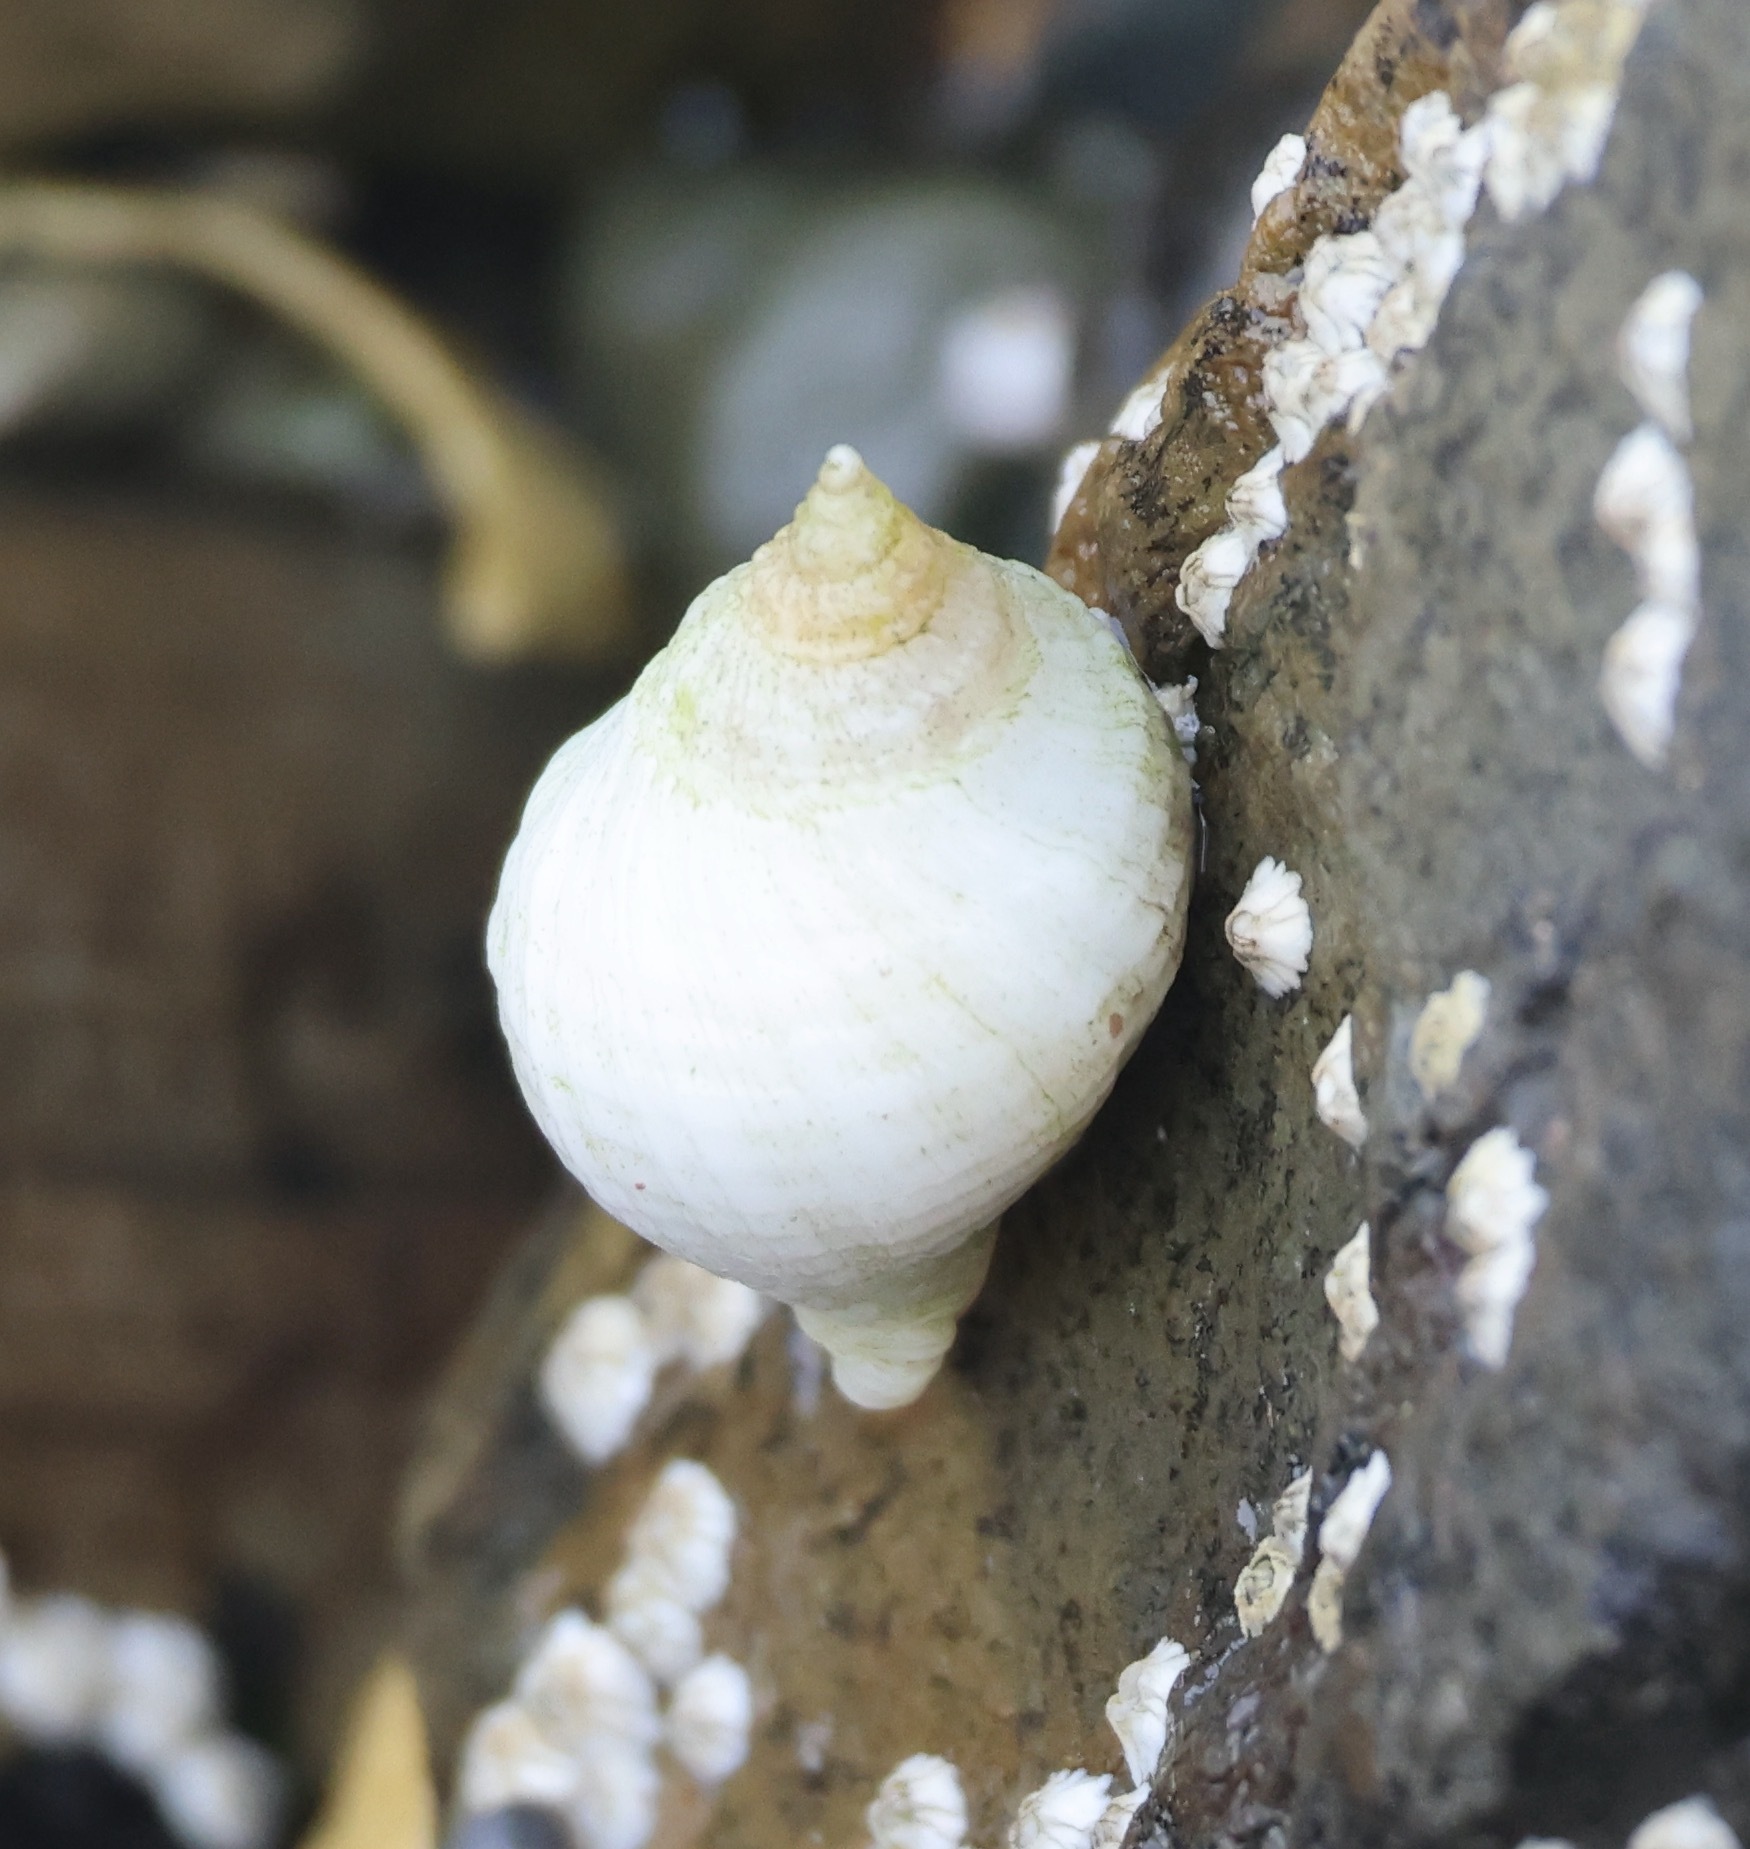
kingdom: Animalia
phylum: Mollusca
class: Gastropoda
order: Neogastropoda
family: Muricidae
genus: Nucella
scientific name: Nucella lapillus
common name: Dog whelk
